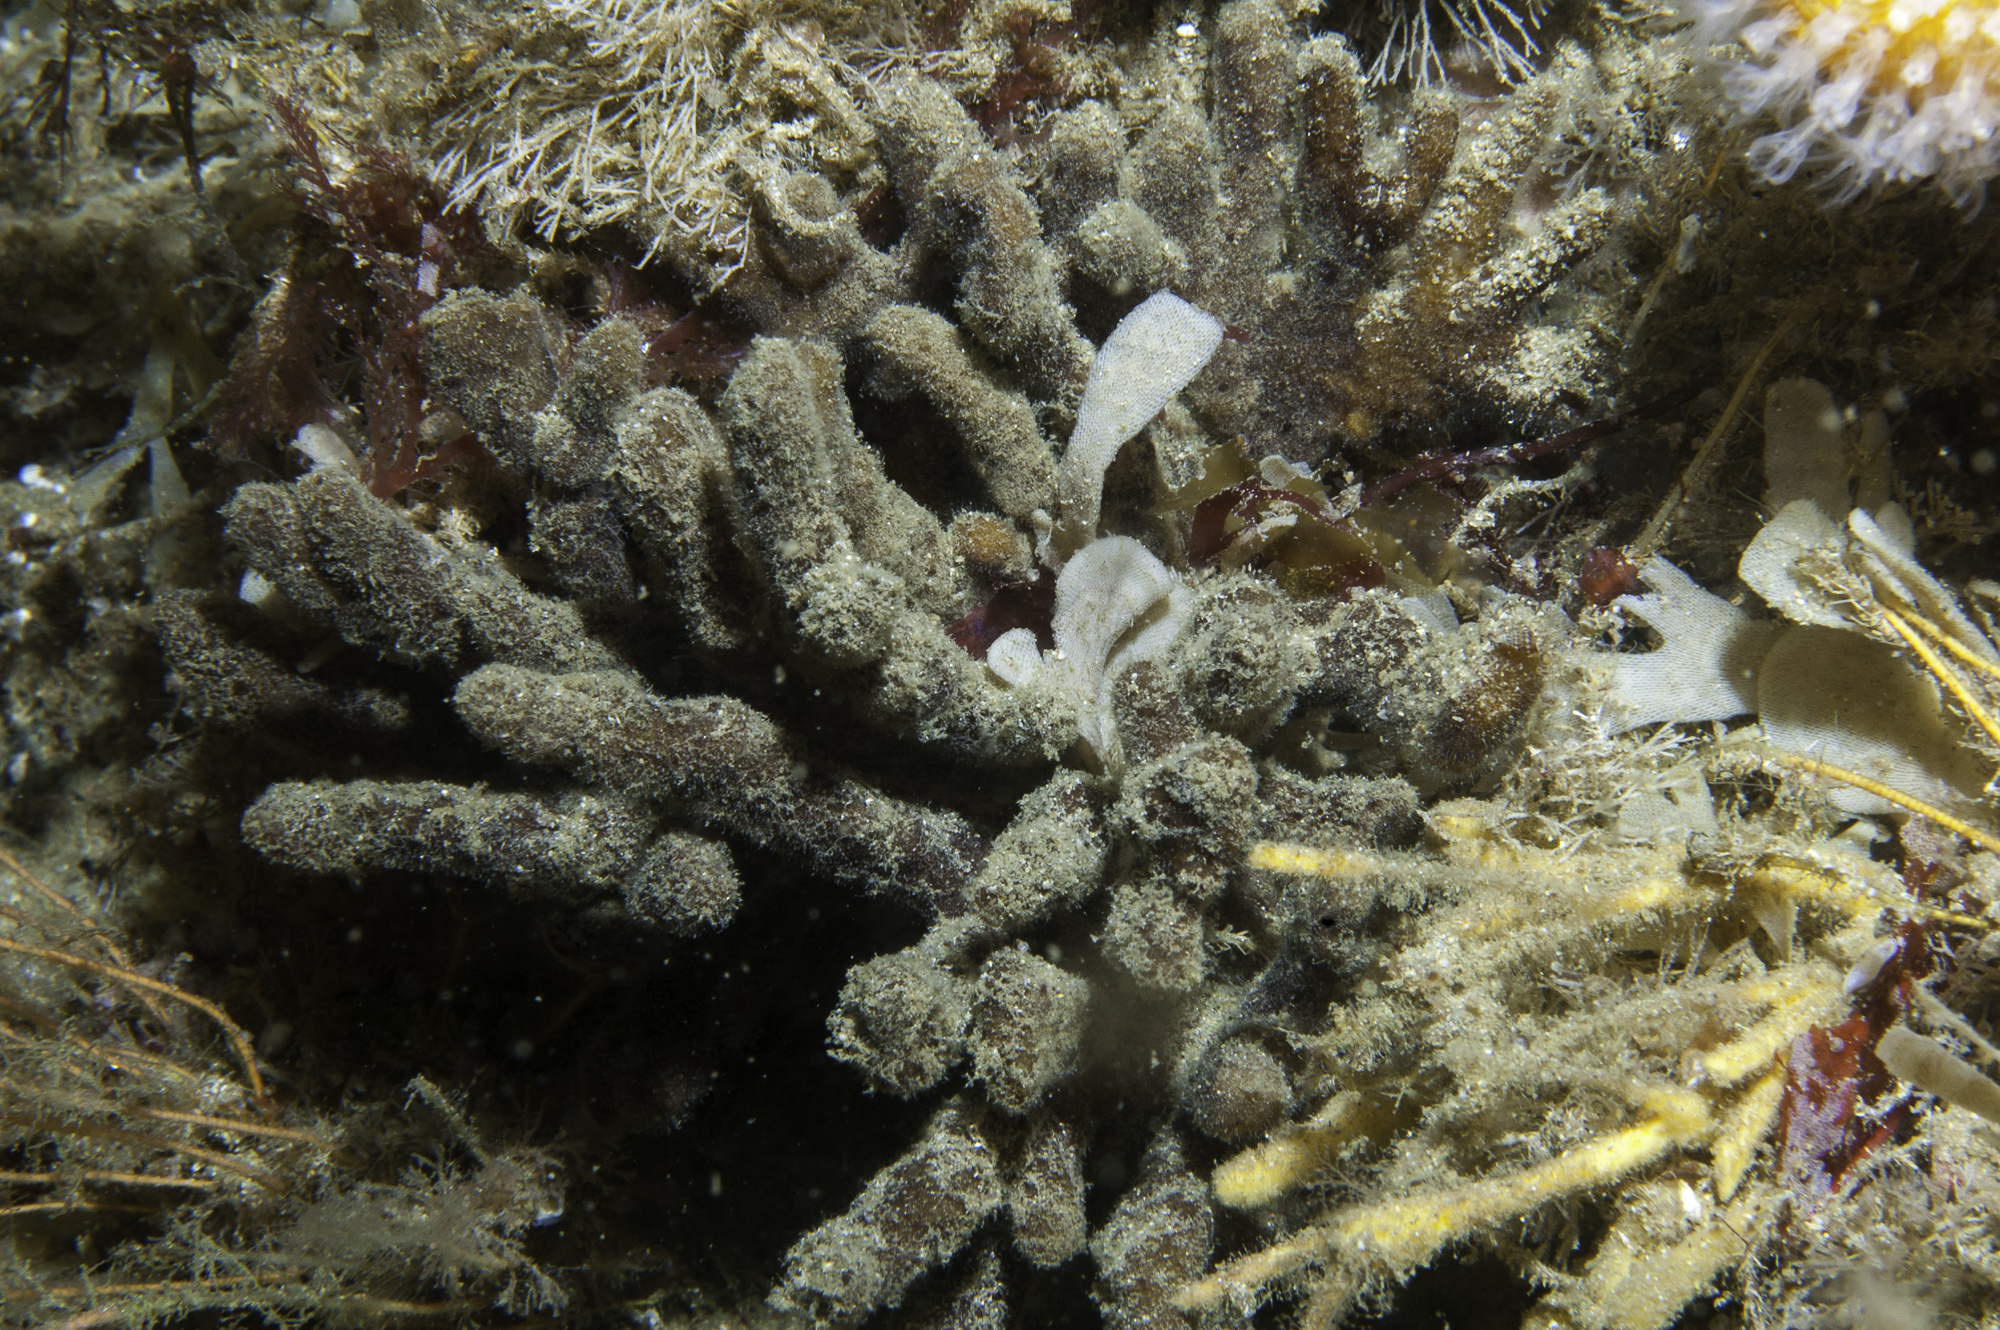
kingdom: Animalia
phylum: Porifera
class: Demospongiae
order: Axinellida
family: Raspailiidae
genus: Raspailia
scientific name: Raspailia ramosa
